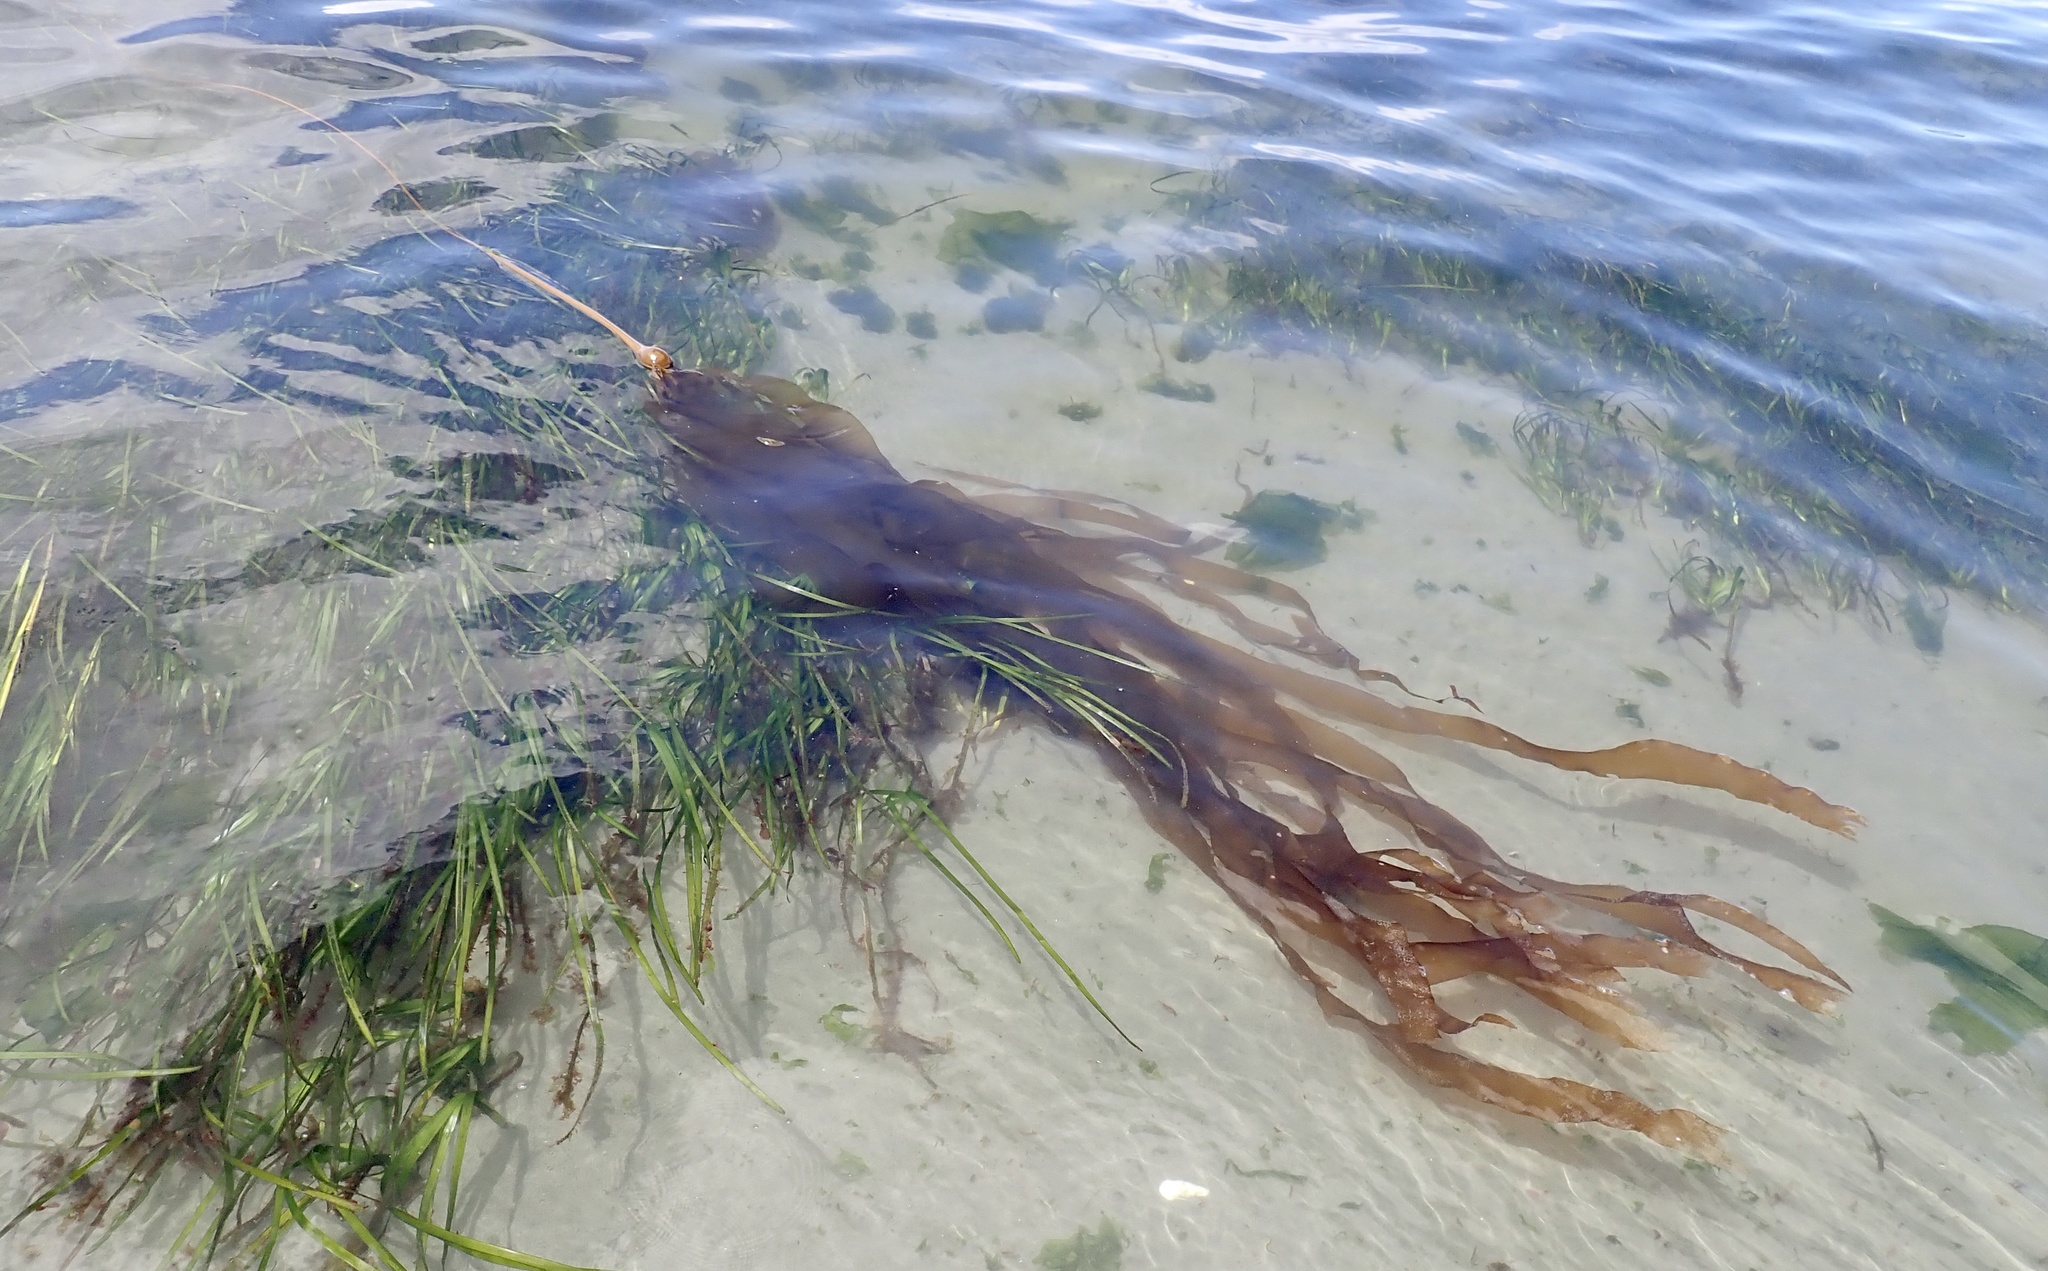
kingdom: Chromista
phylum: Ochrophyta
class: Phaeophyceae
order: Laminariales
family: Laminariaceae
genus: Nereocystis
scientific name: Nereocystis luetkeana
